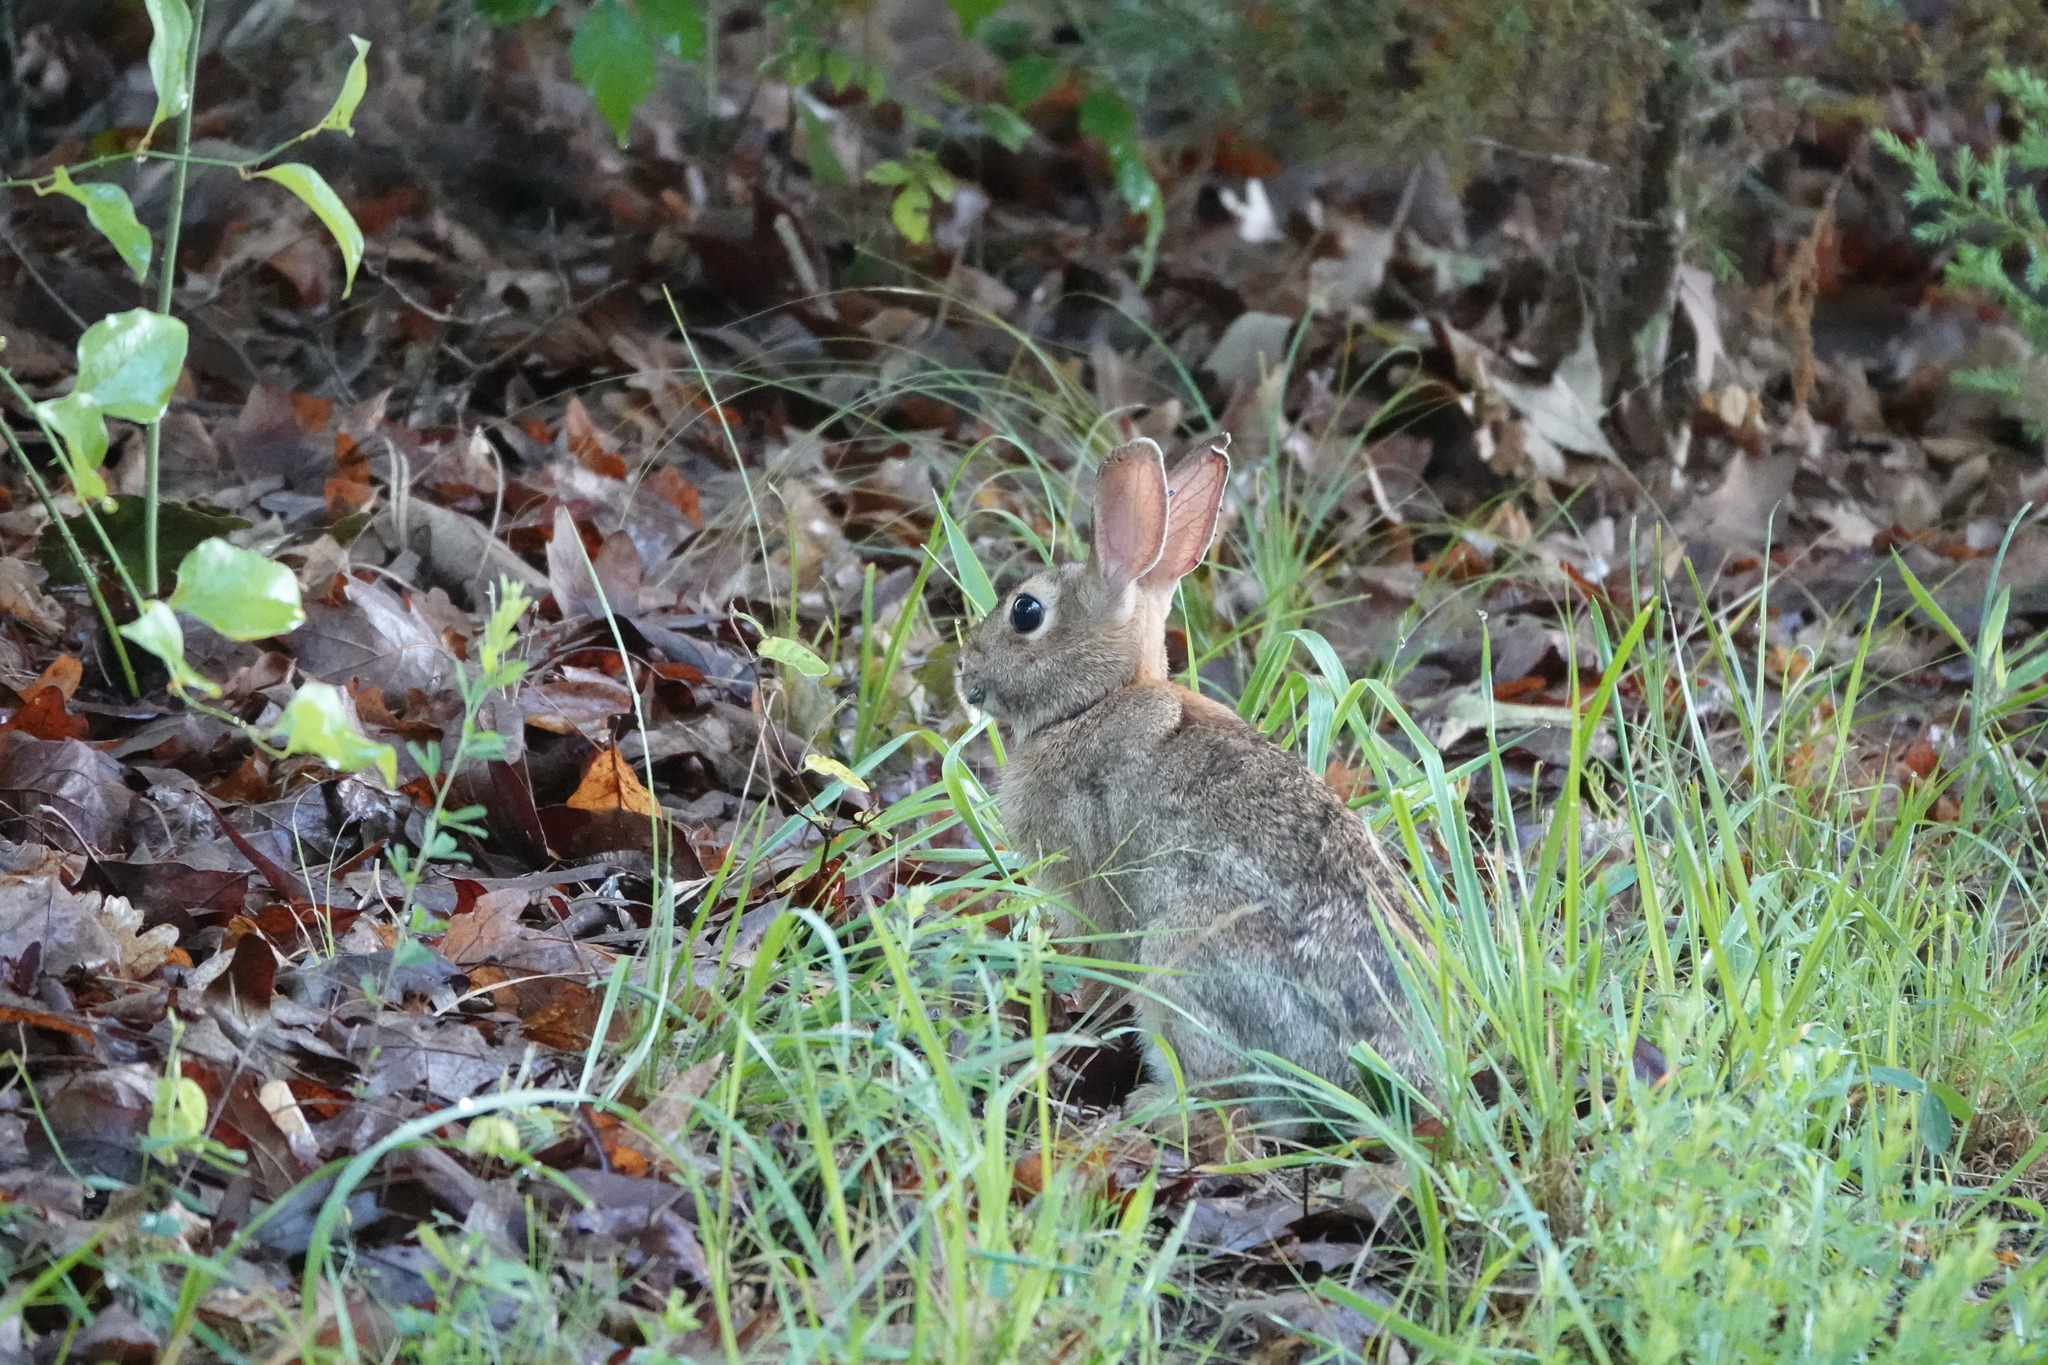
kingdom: Animalia
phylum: Chordata
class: Mammalia
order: Lagomorpha
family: Leporidae
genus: Sylvilagus
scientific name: Sylvilagus floridanus
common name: Eastern cottontail
